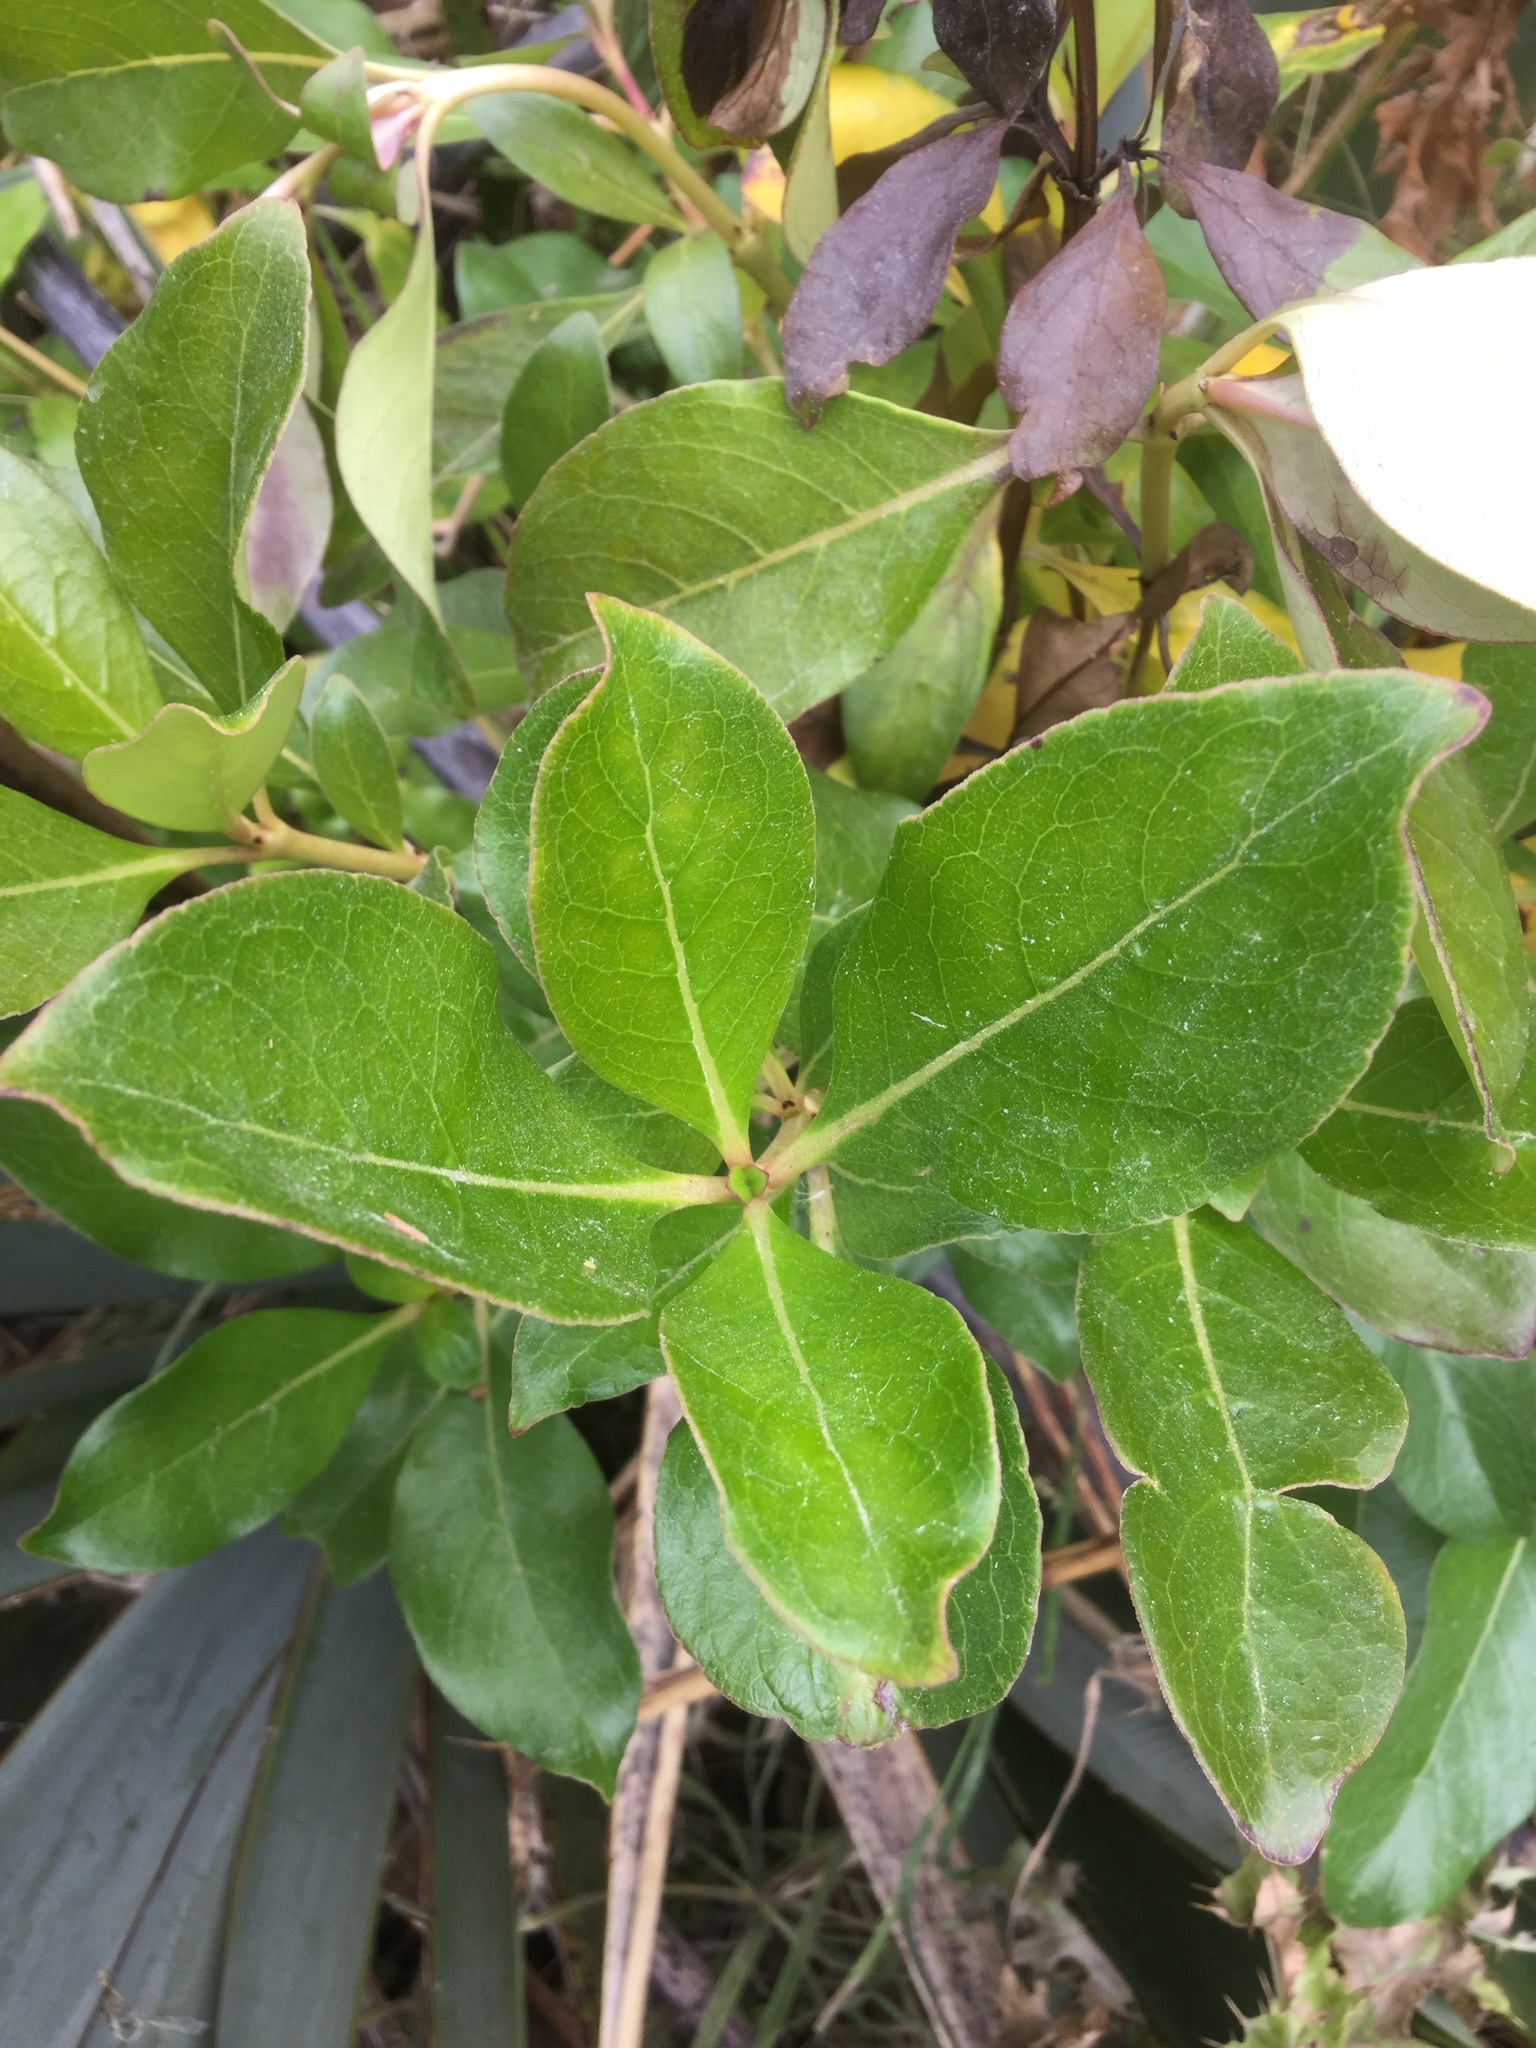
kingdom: Plantae
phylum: Tracheophyta
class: Magnoliopsida
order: Gentianales
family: Rubiaceae
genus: Coprosma
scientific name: Coprosma robusta
